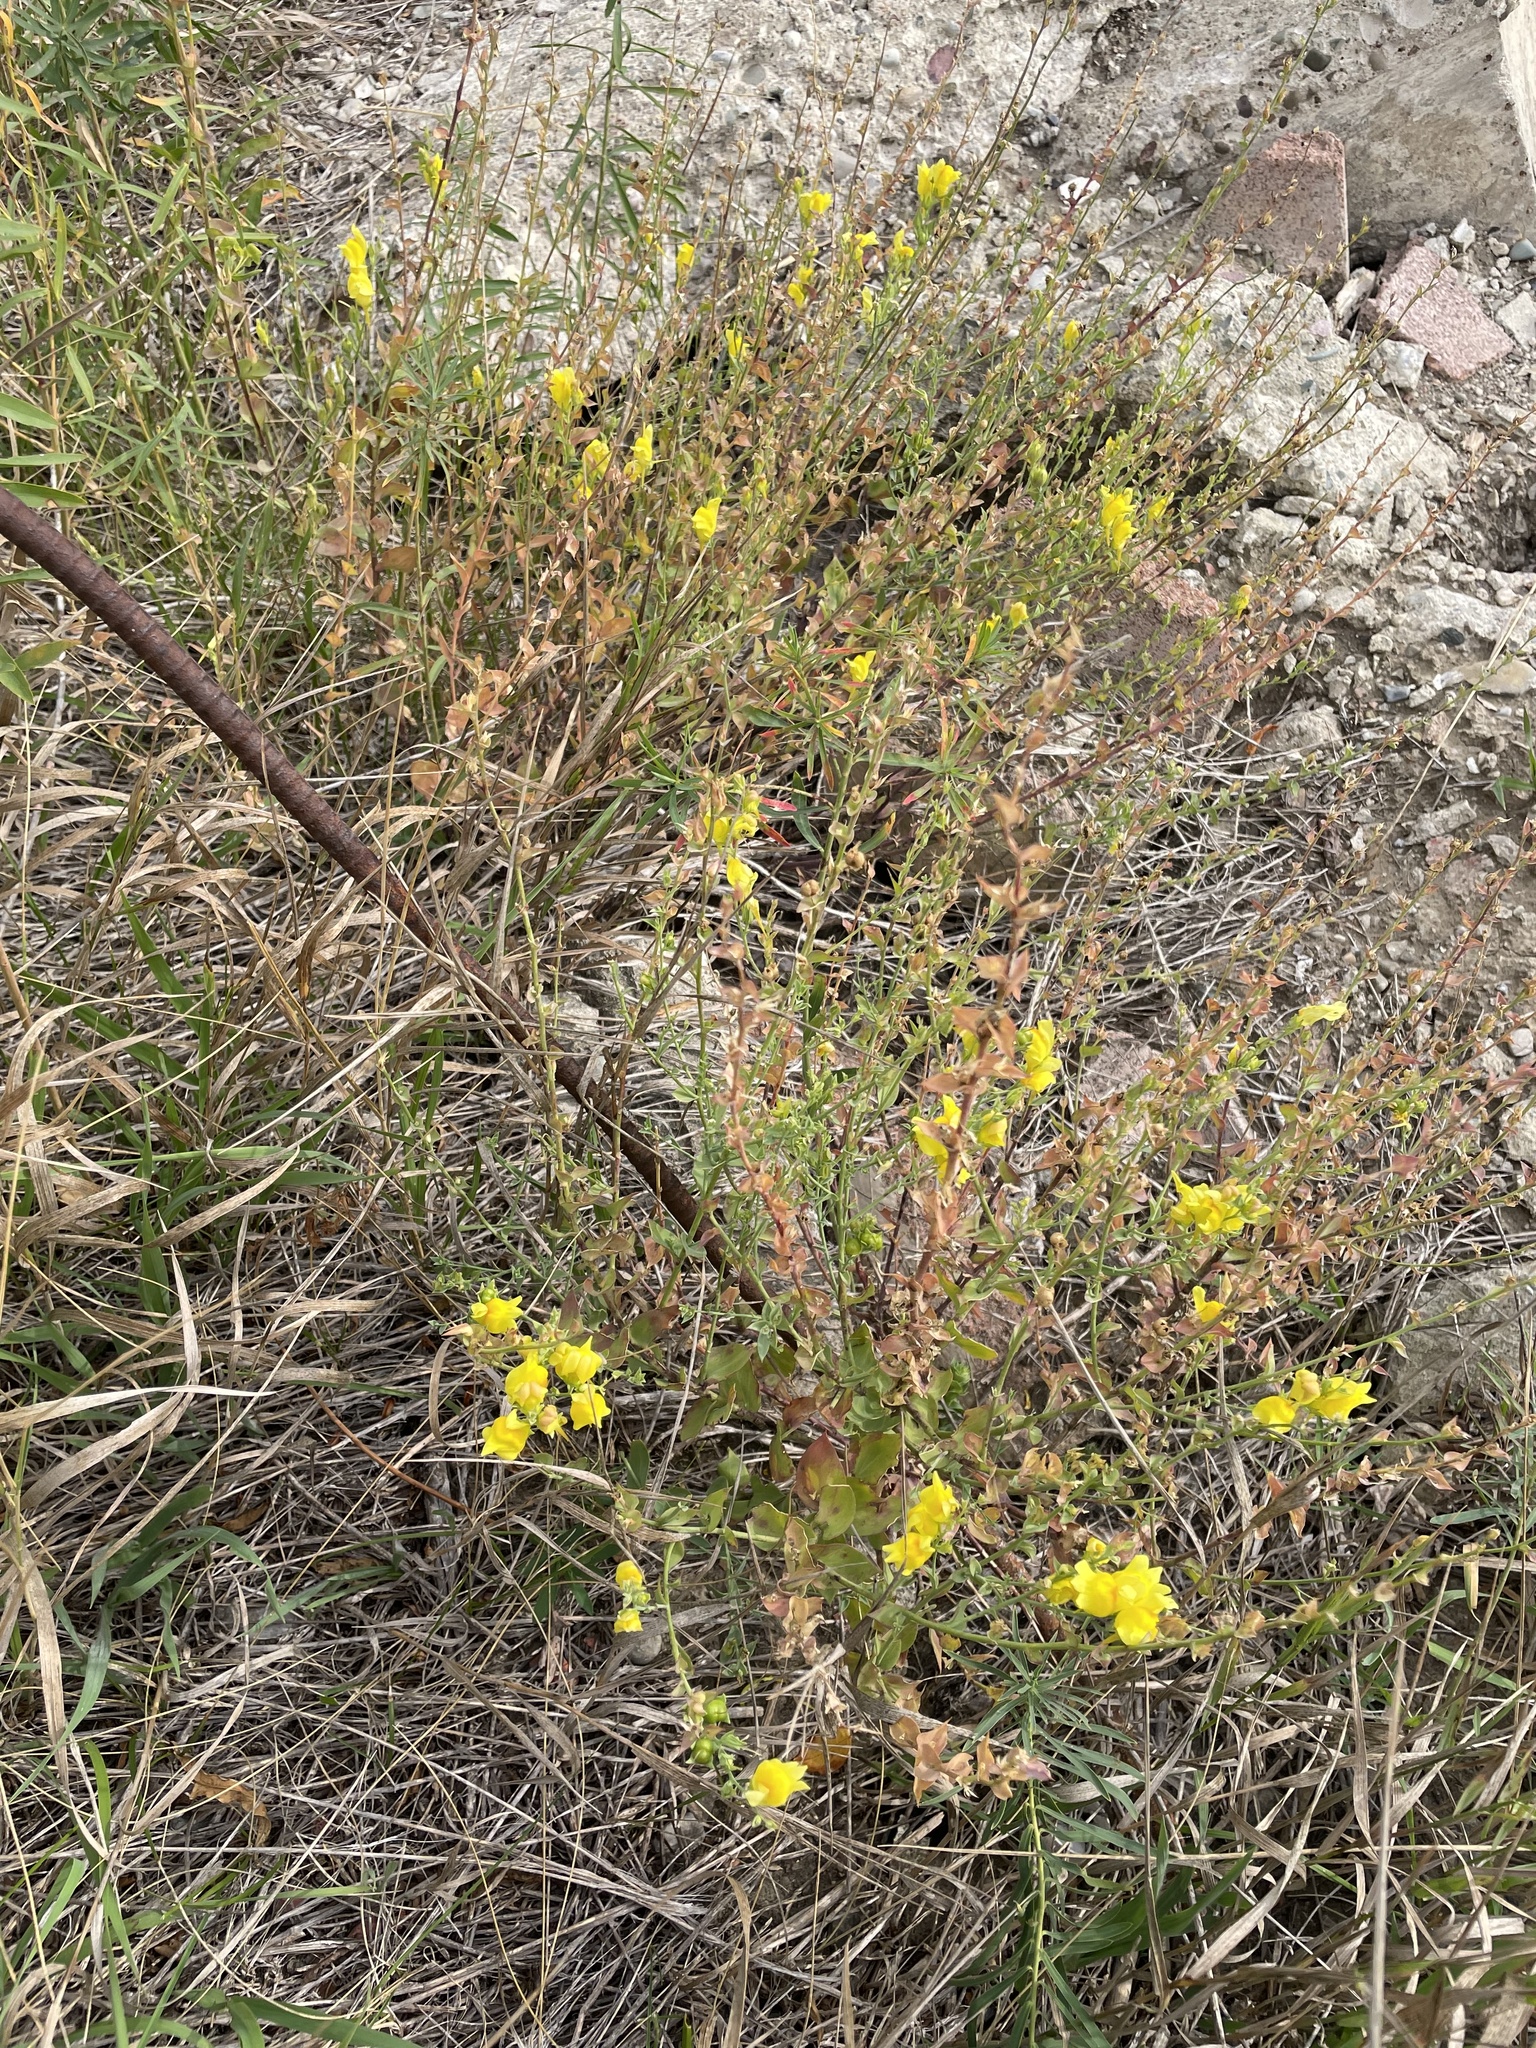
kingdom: Plantae
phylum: Tracheophyta
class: Magnoliopsida
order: Lamiales
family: Plantaginaceae
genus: Linaria
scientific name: Linaria dalmatica
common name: Dalmatian toadflax
